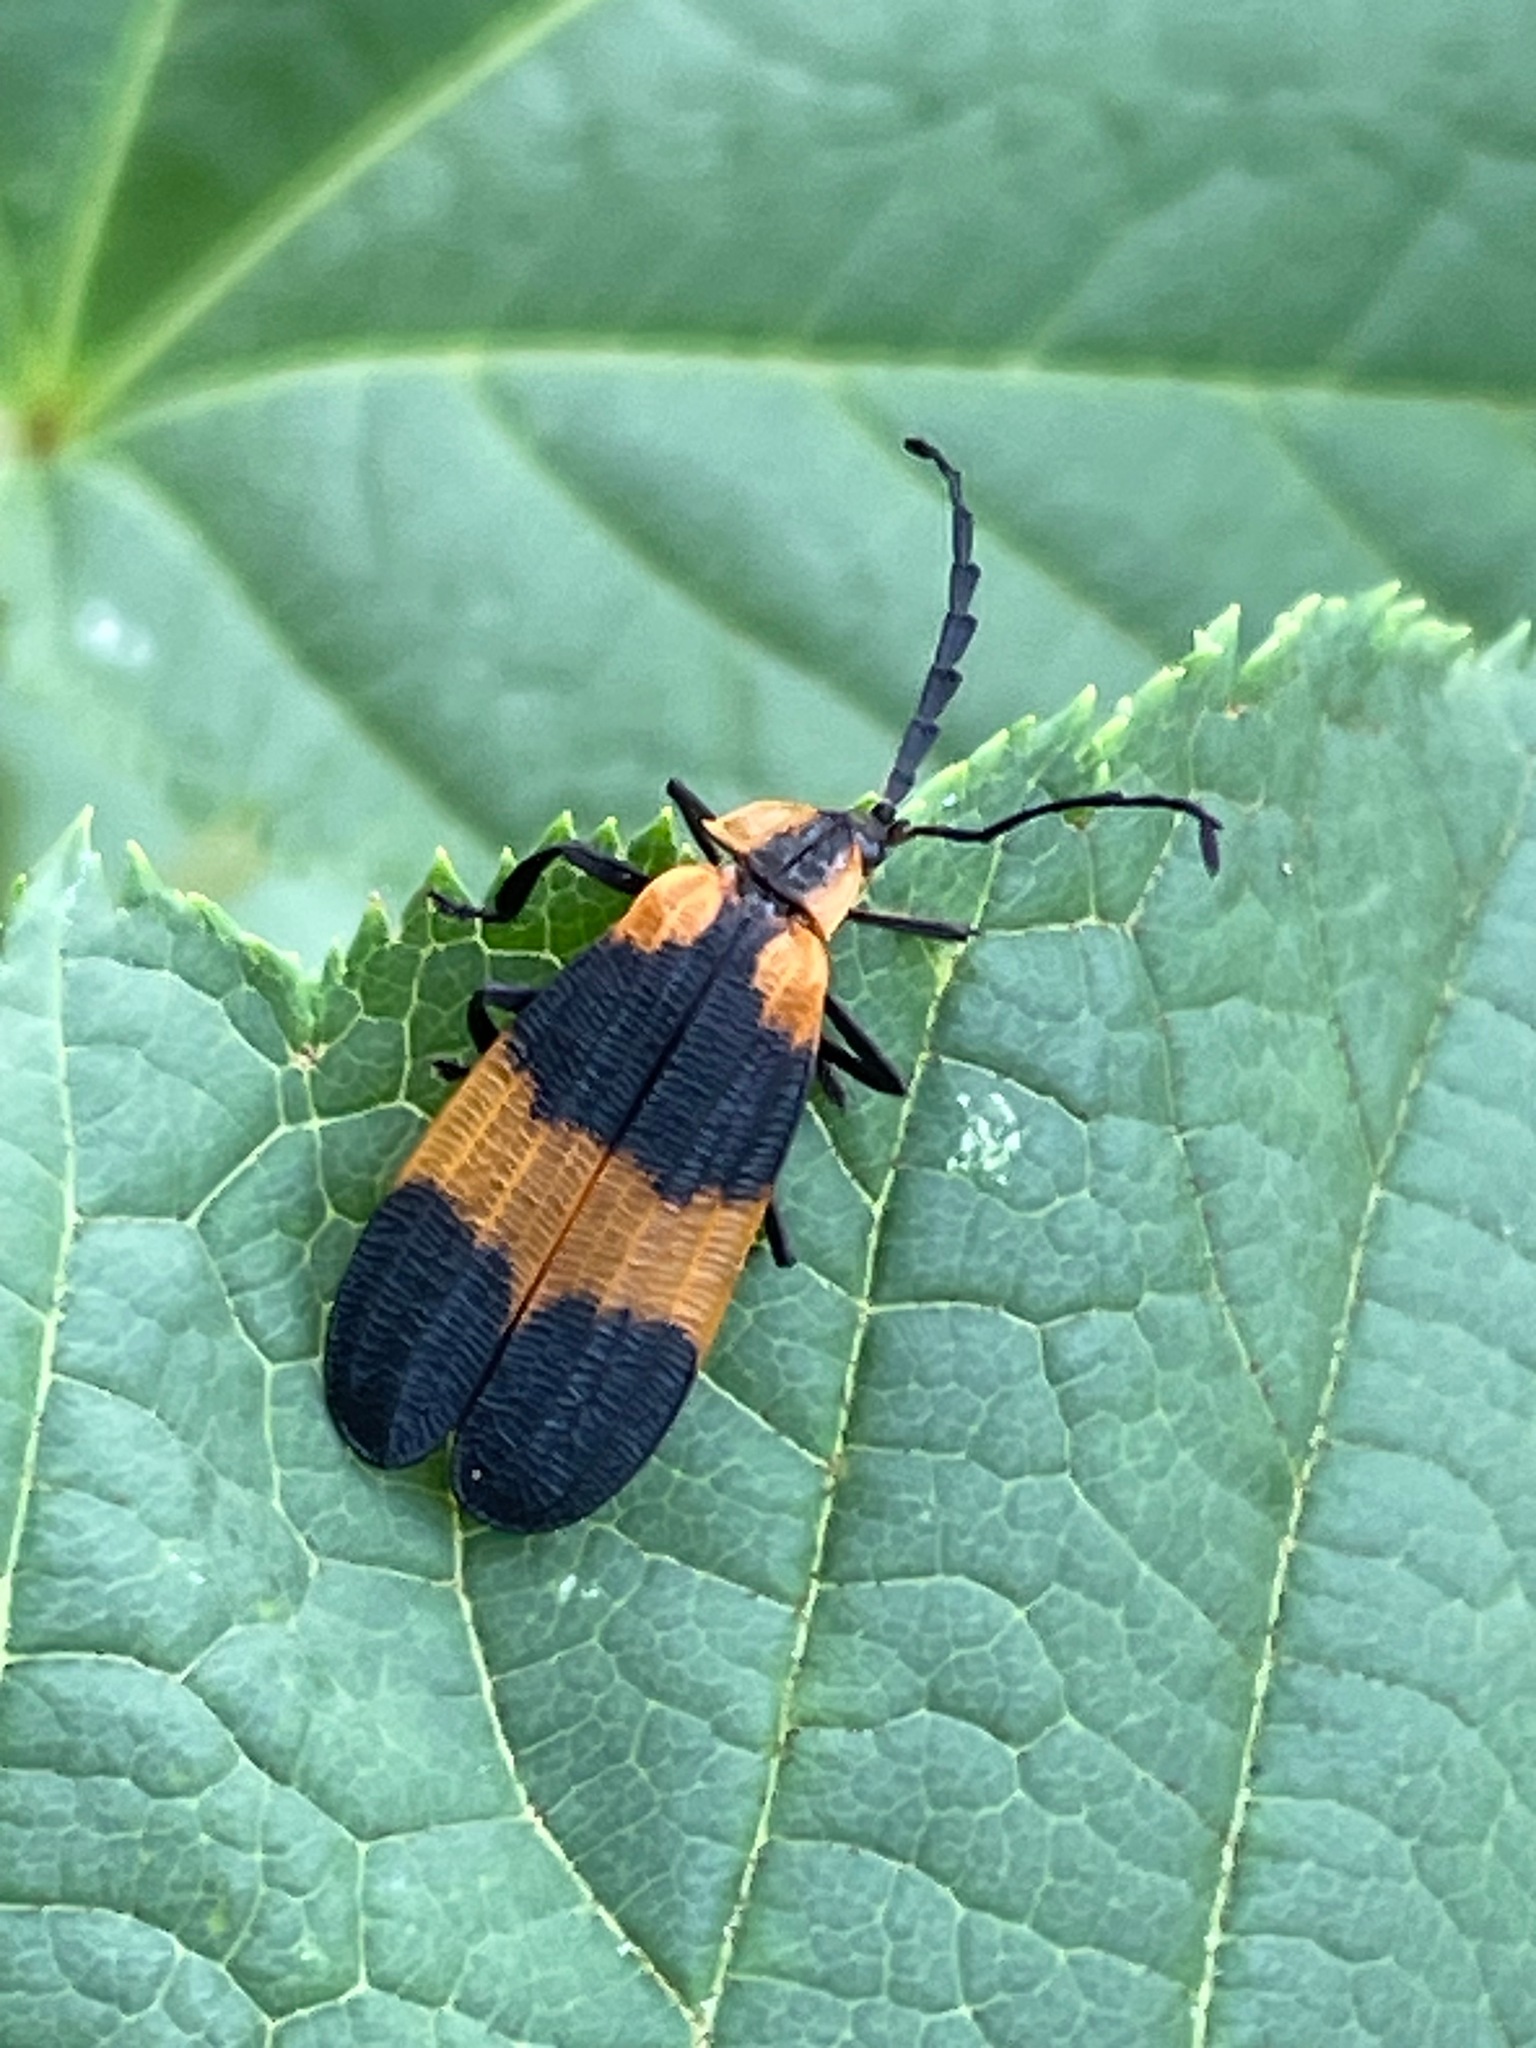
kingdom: Animalia
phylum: Arthropoda
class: Insecta
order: Coleoptera
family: Lycidae
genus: Calopteron
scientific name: Calopteron reticulatum
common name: Banded net-winged beetle
